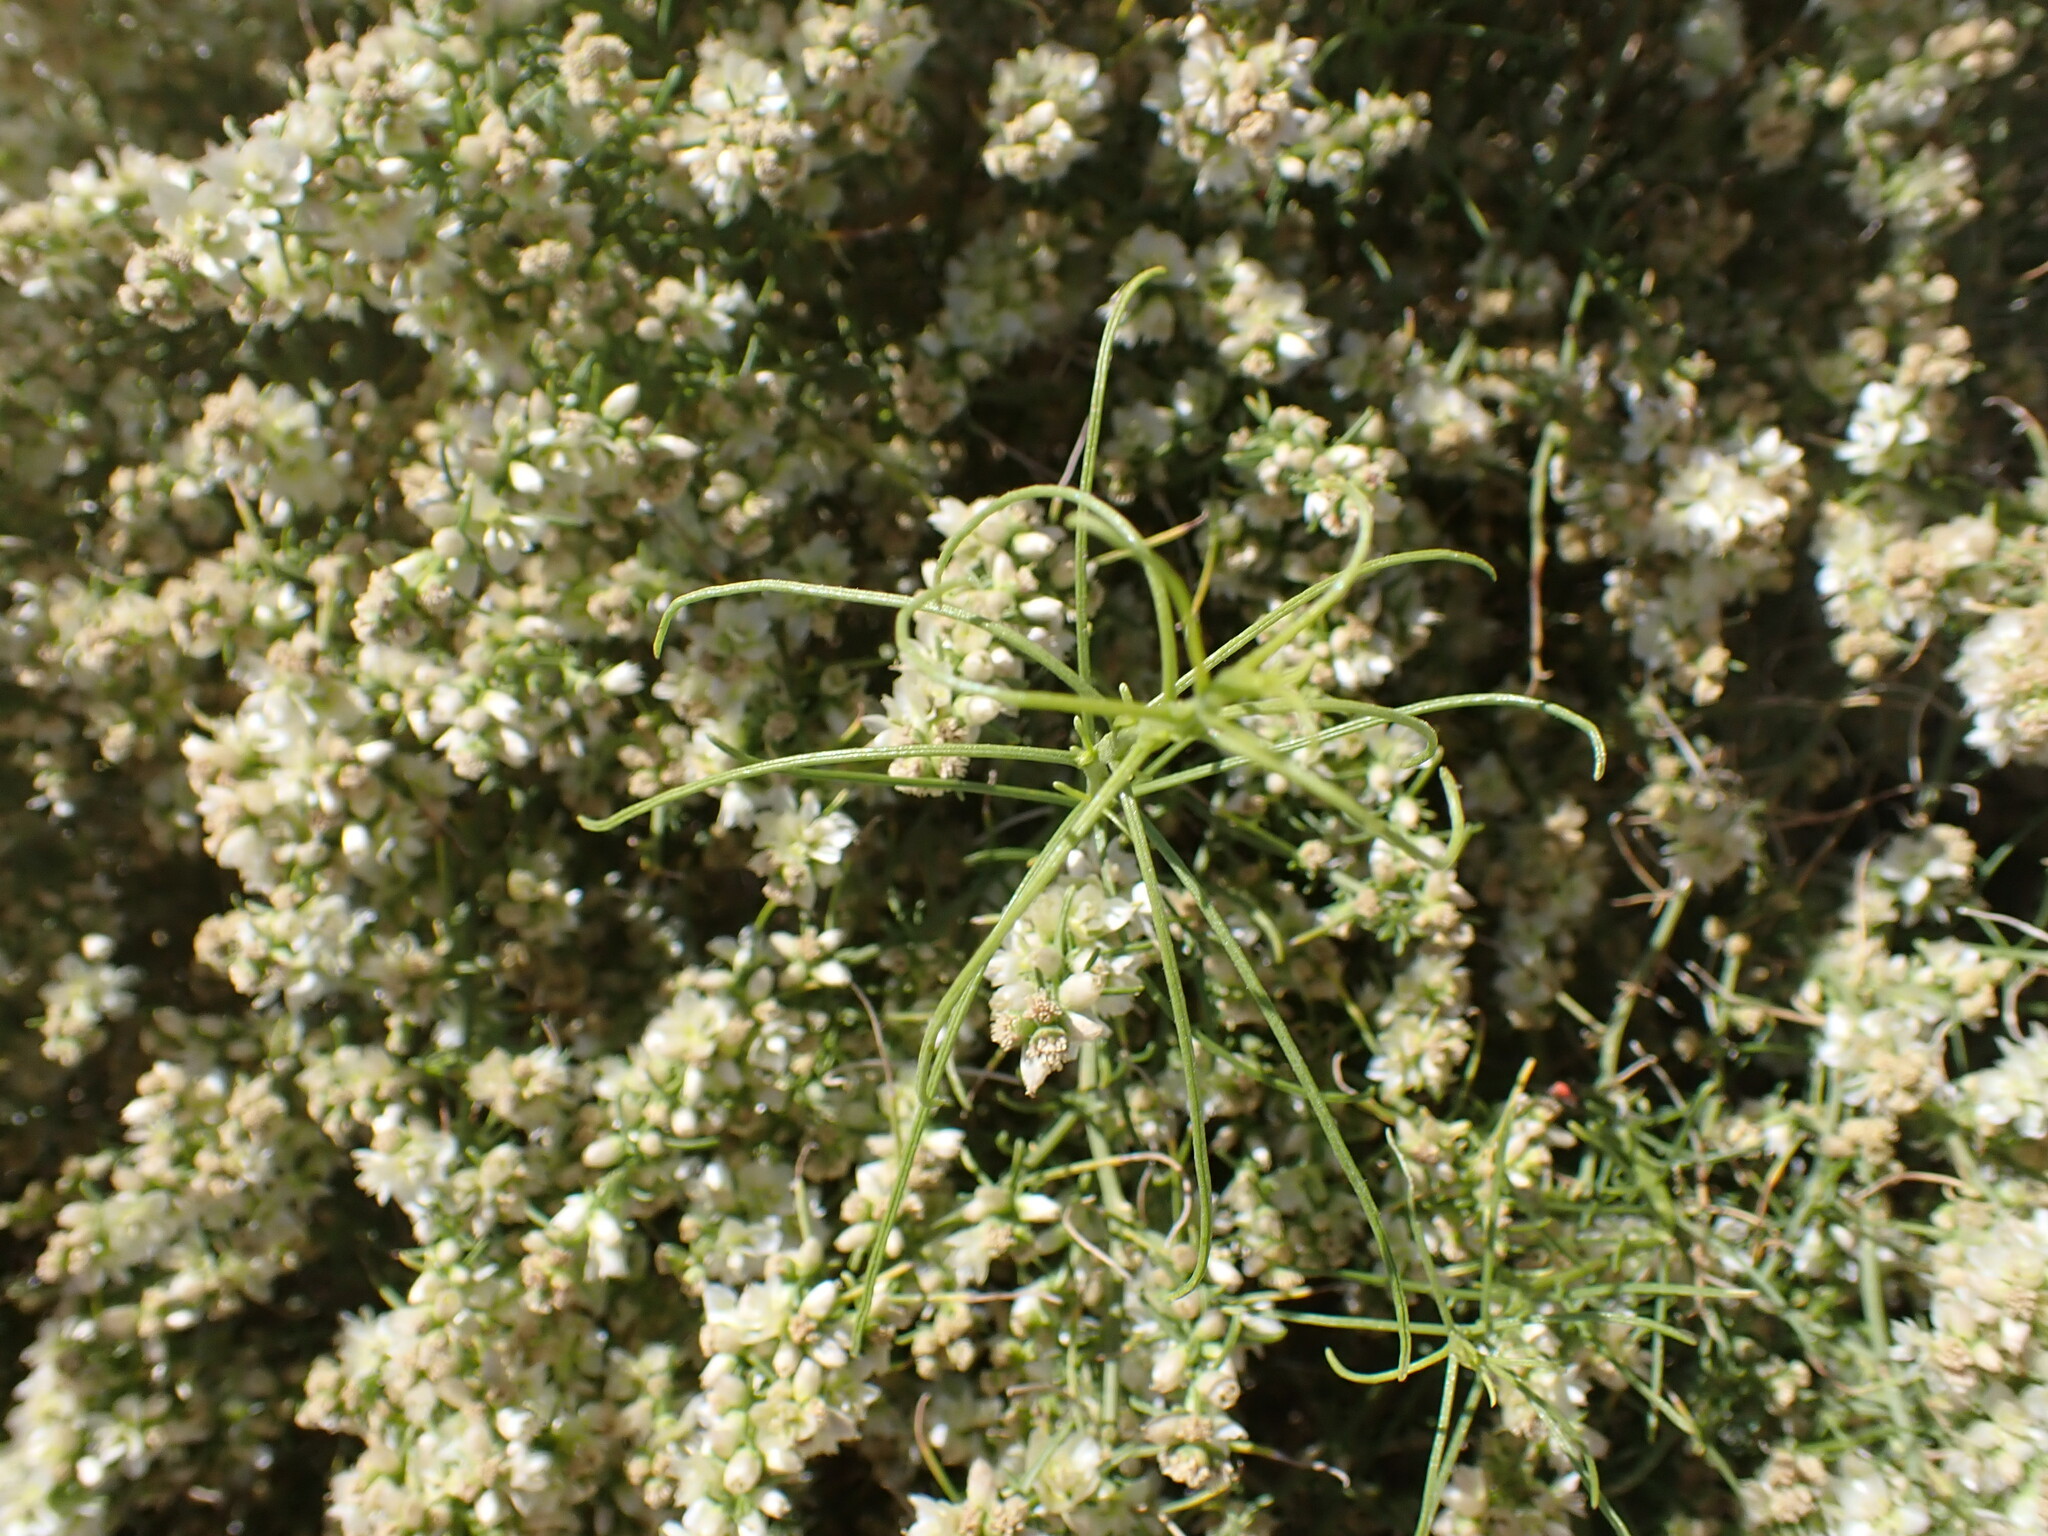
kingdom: Plantae
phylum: Tracheophyta
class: Magnoliopsida
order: Asterales
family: Asteraceae
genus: Ambrosia
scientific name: Ambrosia salsola
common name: Burrobrush
